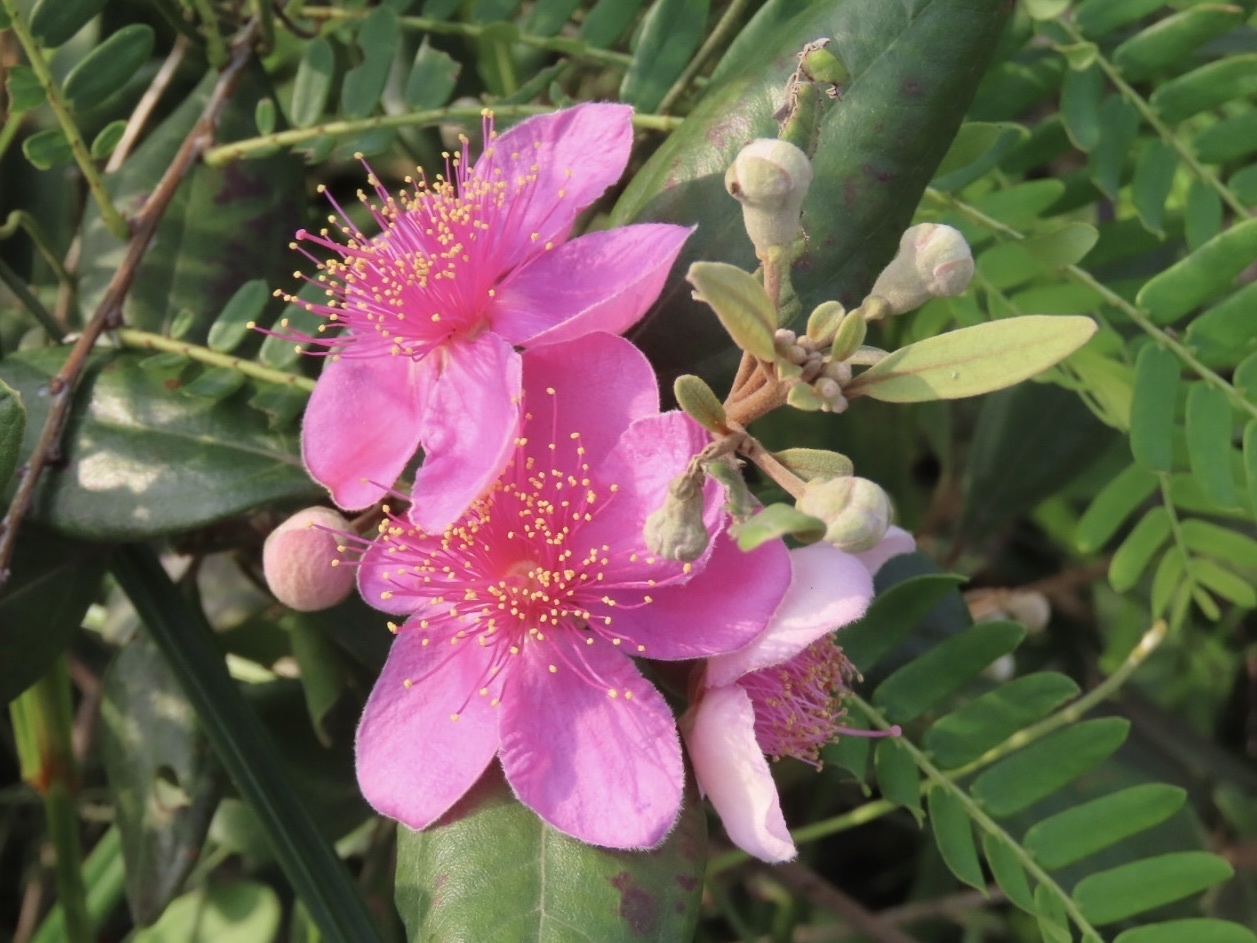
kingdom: Plantae
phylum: Tracheophyta
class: Magnoliopsida
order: Myrtales
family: Myrtaceae
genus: Rhodomyrtus
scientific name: Rhodomyrtus tomentosa
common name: Rose myrtle
